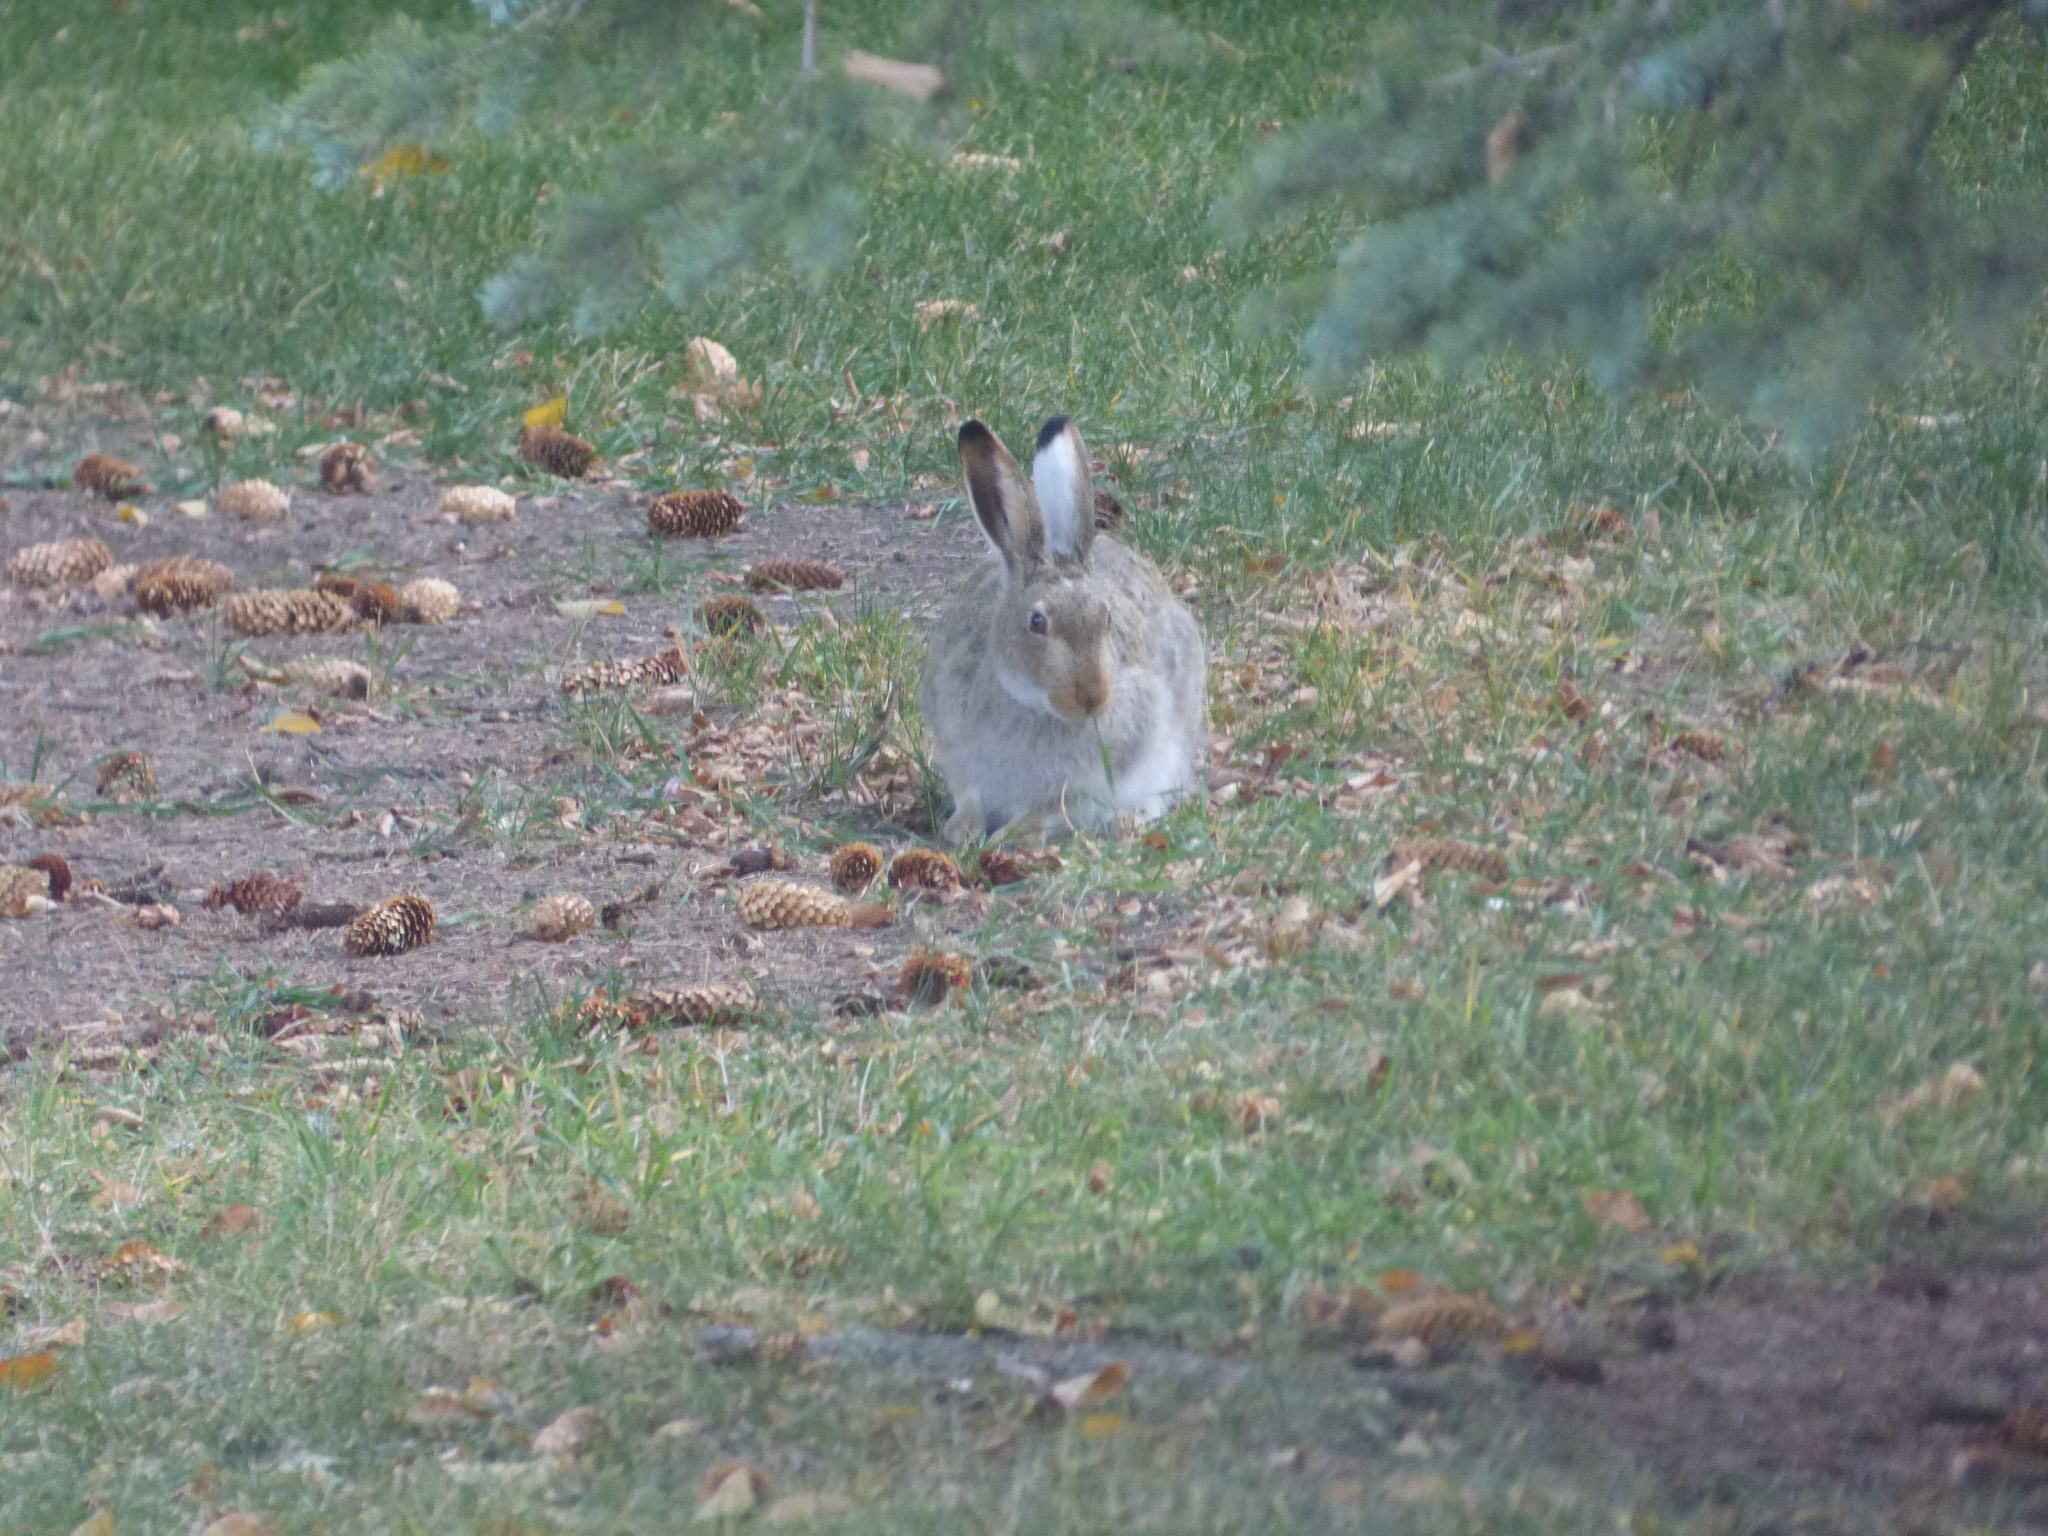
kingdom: Animalia
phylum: Chordata
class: Mammalia
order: Lagomorpha
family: Leporidae
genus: Lepus
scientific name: Lepus townsendii
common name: White-tailed jackrabbit
